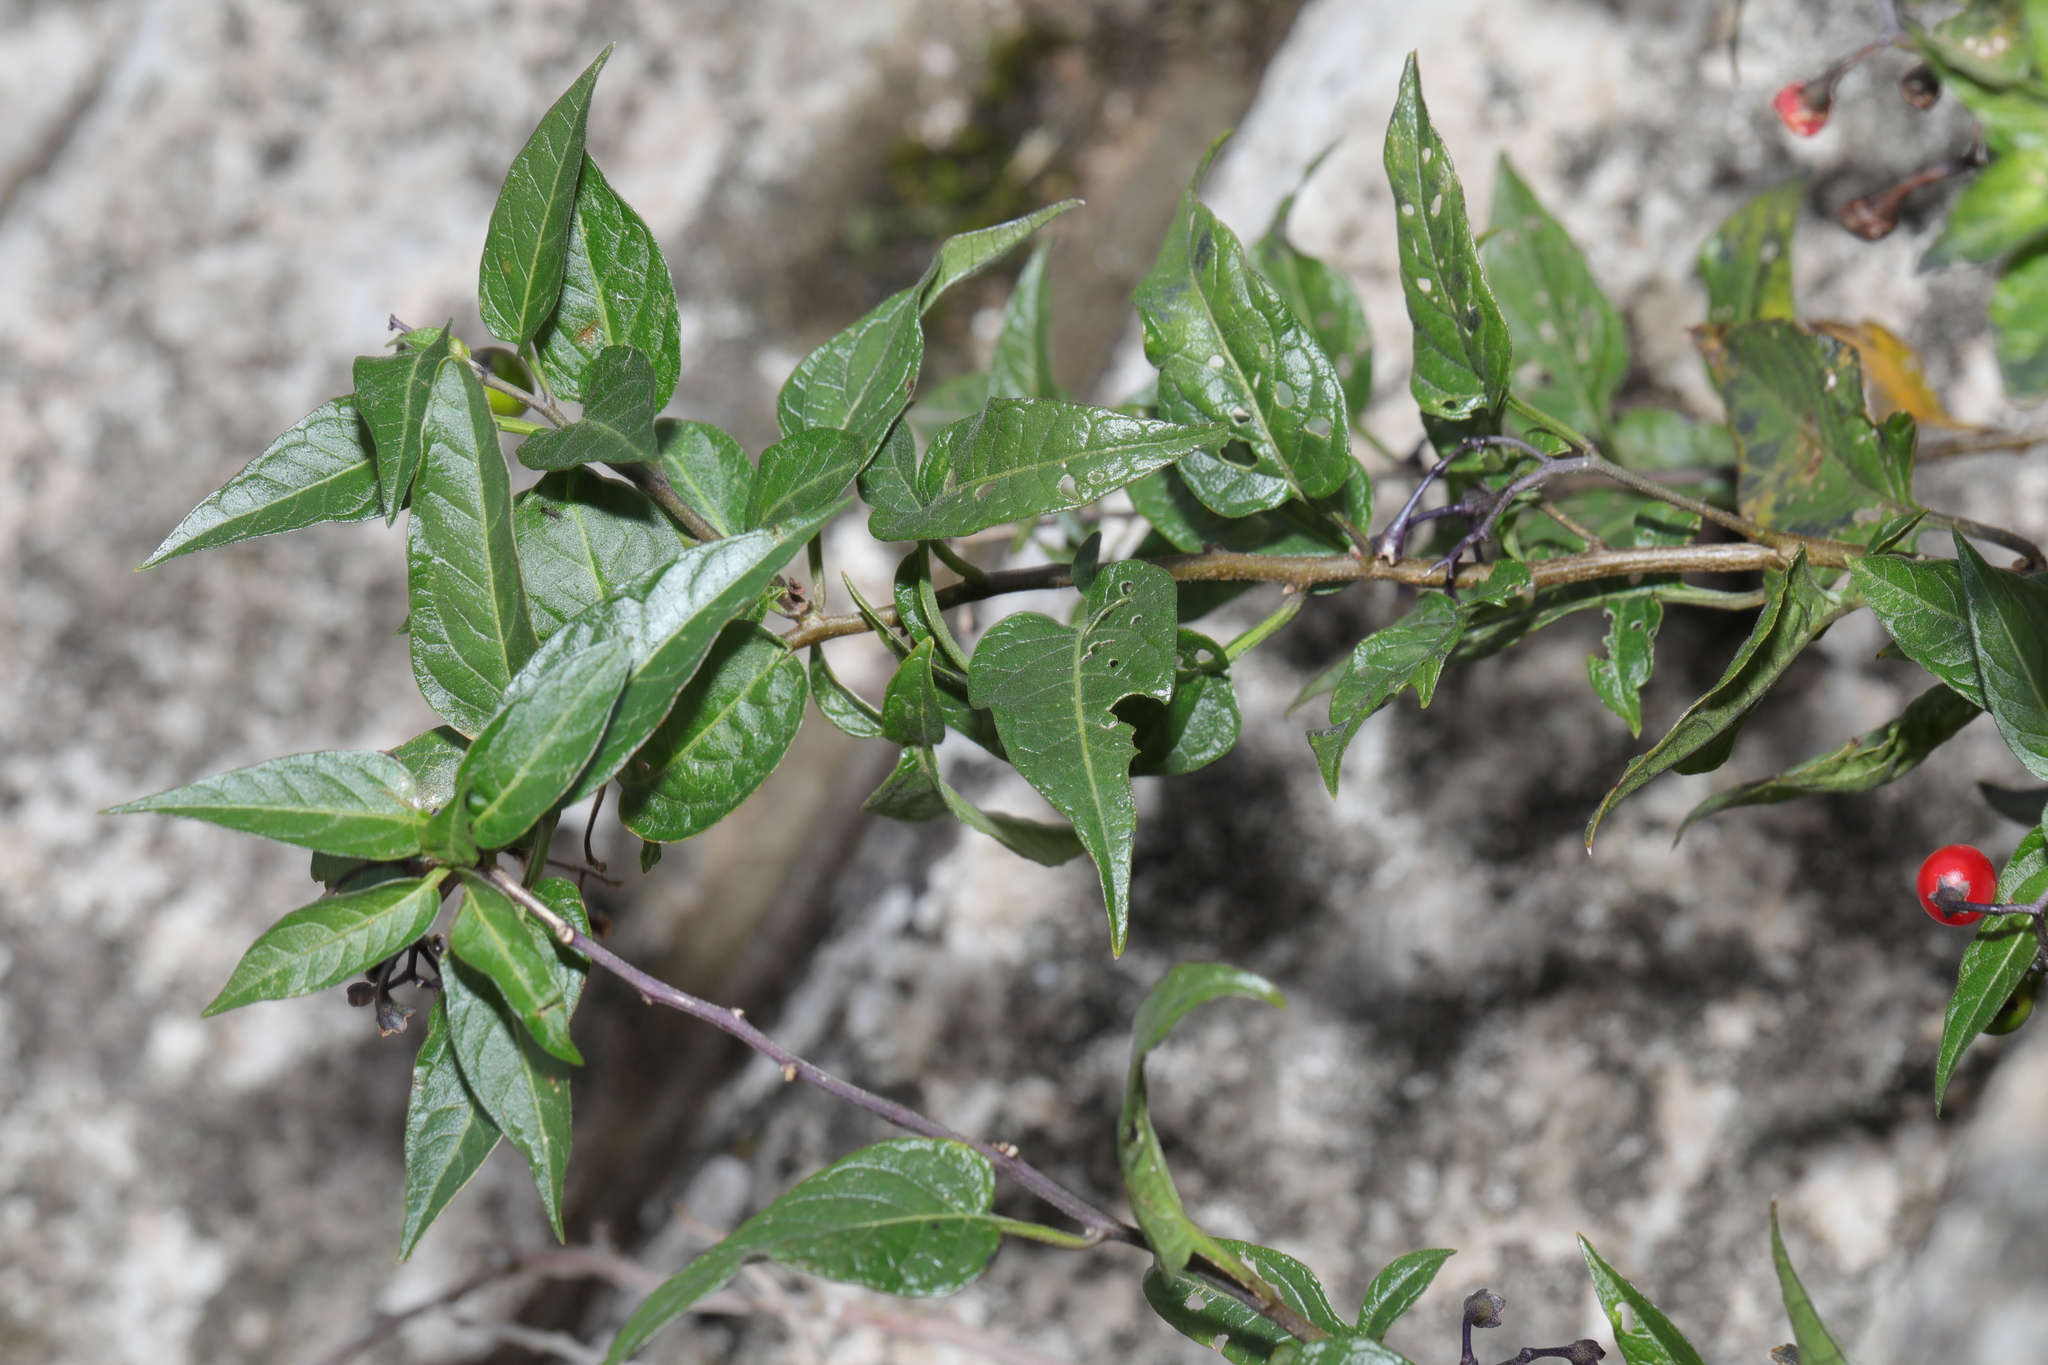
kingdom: Plantae
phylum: Tracheophyta
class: Magnoliopsida
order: Solanales
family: Solanaceae
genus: Solanum
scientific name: Solanum dulcamara
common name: Climbing nightshade
